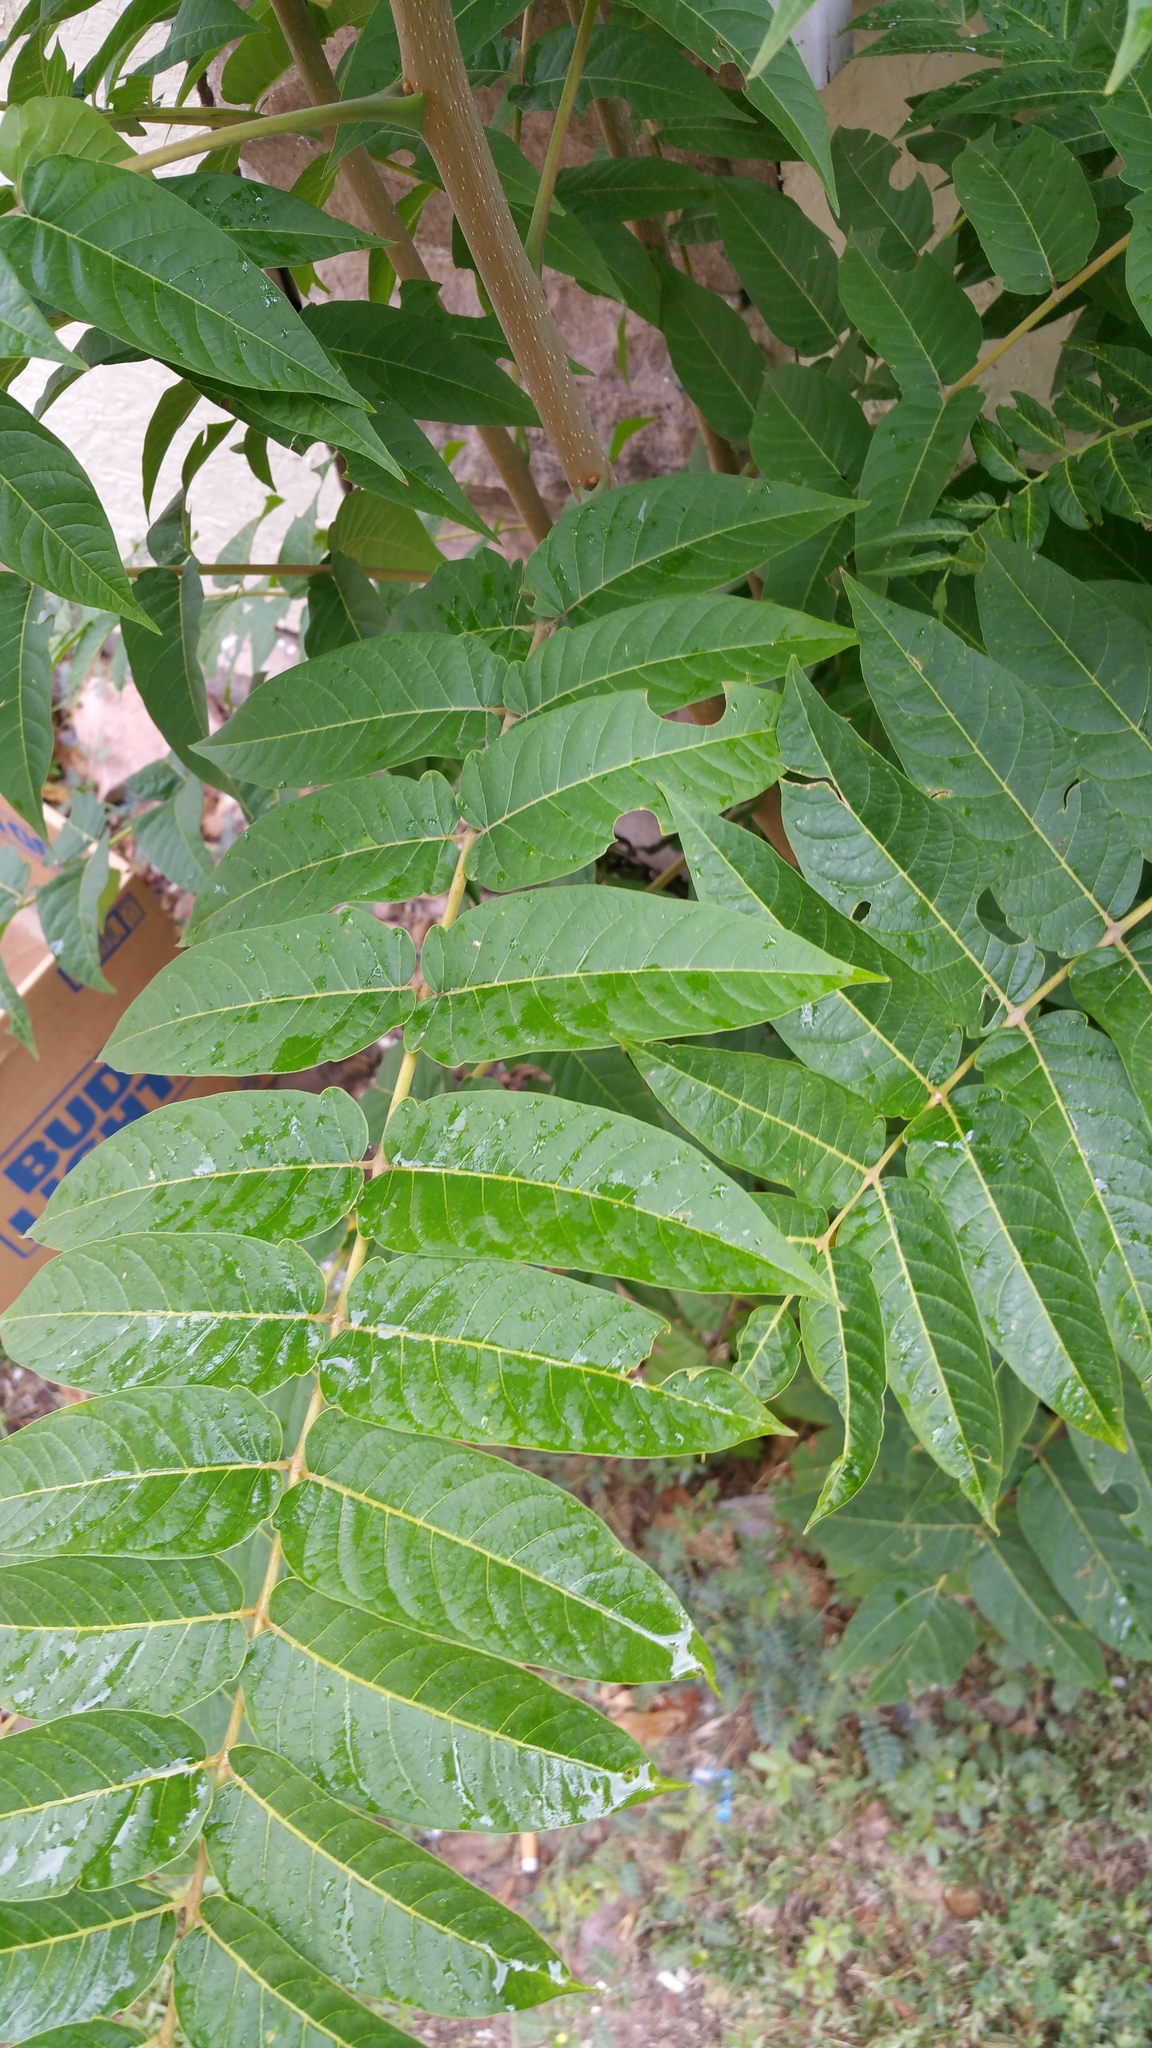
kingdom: Plantae
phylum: Tracheophyta
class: Magnoliopsida
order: Sapindales
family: Simaroubaceae
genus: Ailanthus
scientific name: Ailanthus altissima
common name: Tree-of-heaven
